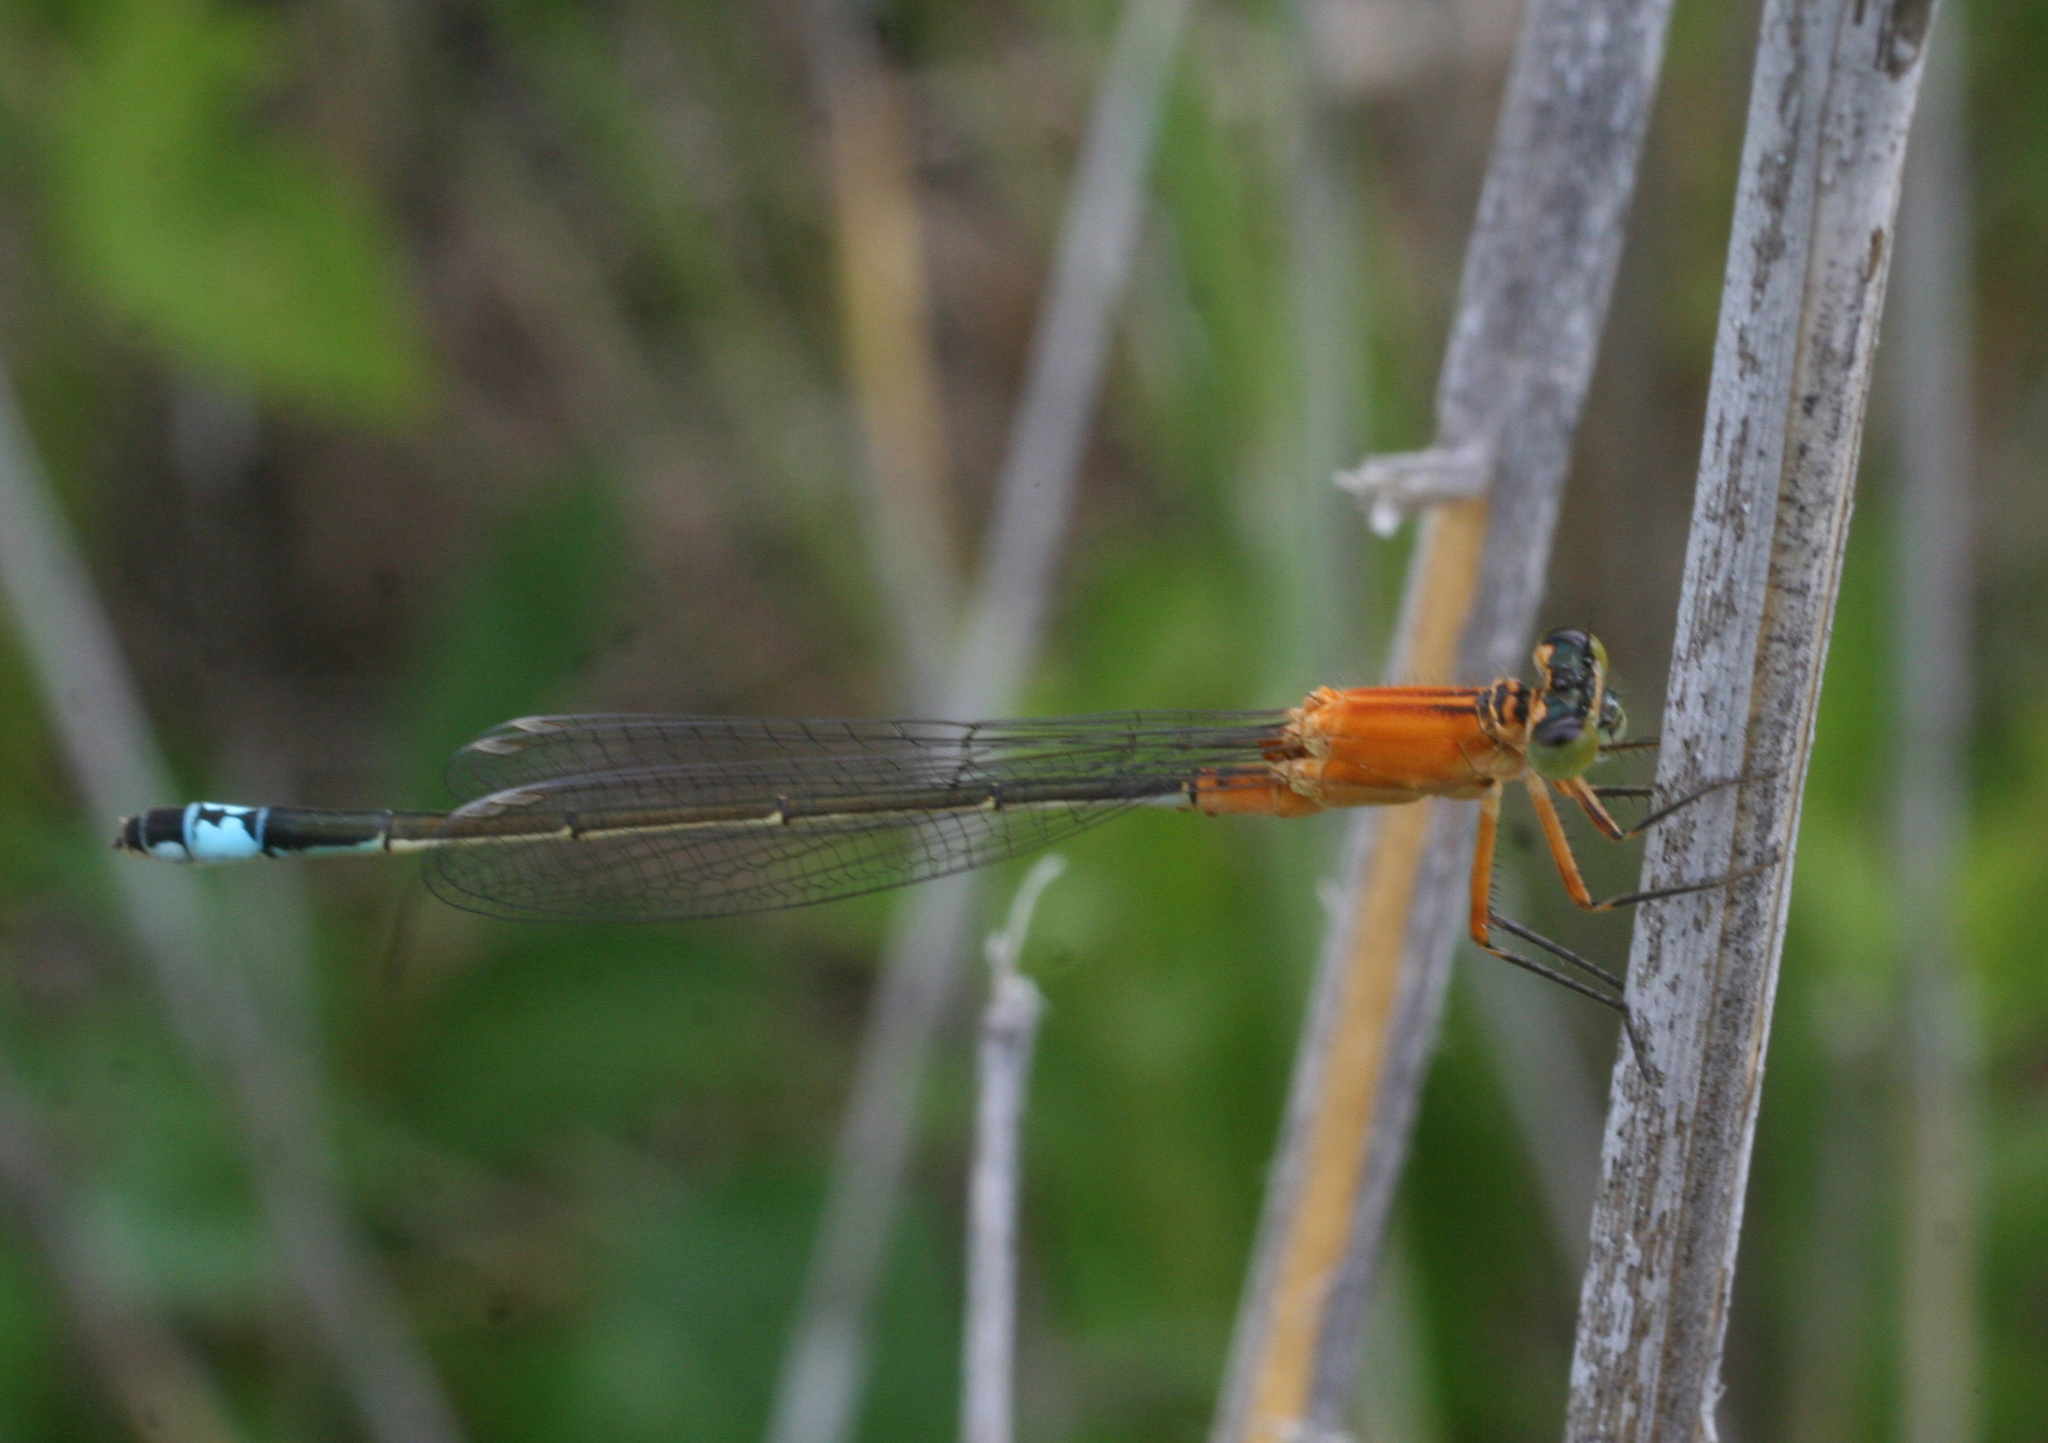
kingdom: Animalia
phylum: Arthropoda
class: Insecta
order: Odonata
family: Coenagrionidae
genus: Ischnura
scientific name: Ischnura aralensis
